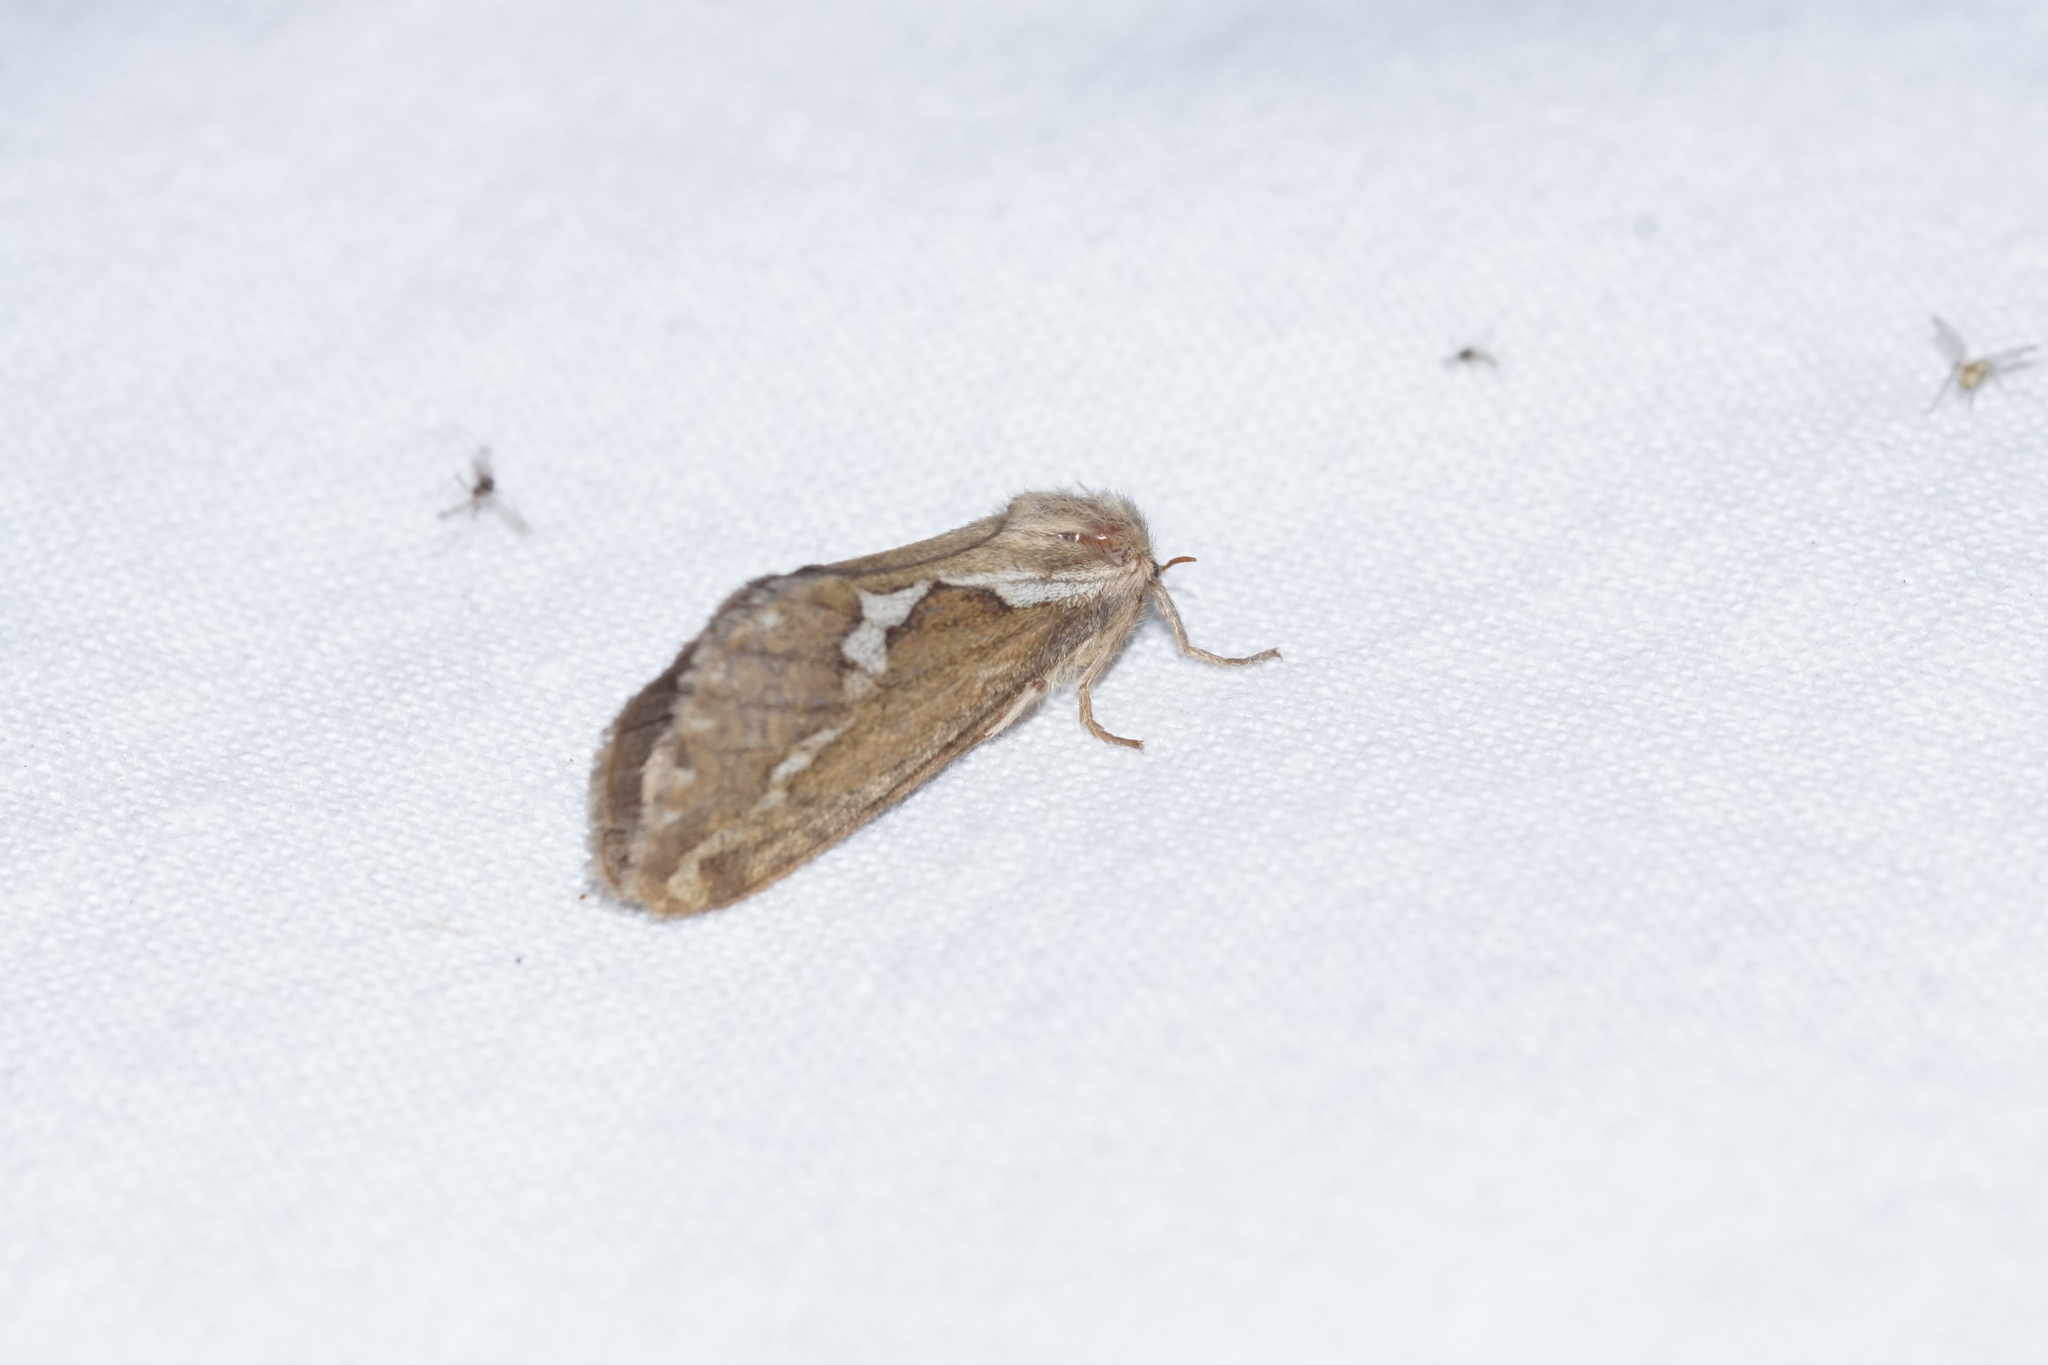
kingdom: Animalia
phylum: Arthropoda
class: Insecta
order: Lepidoptera
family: Hepialidae
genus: Korscheltellus
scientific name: Korscheltellus lupulina
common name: Common swift
